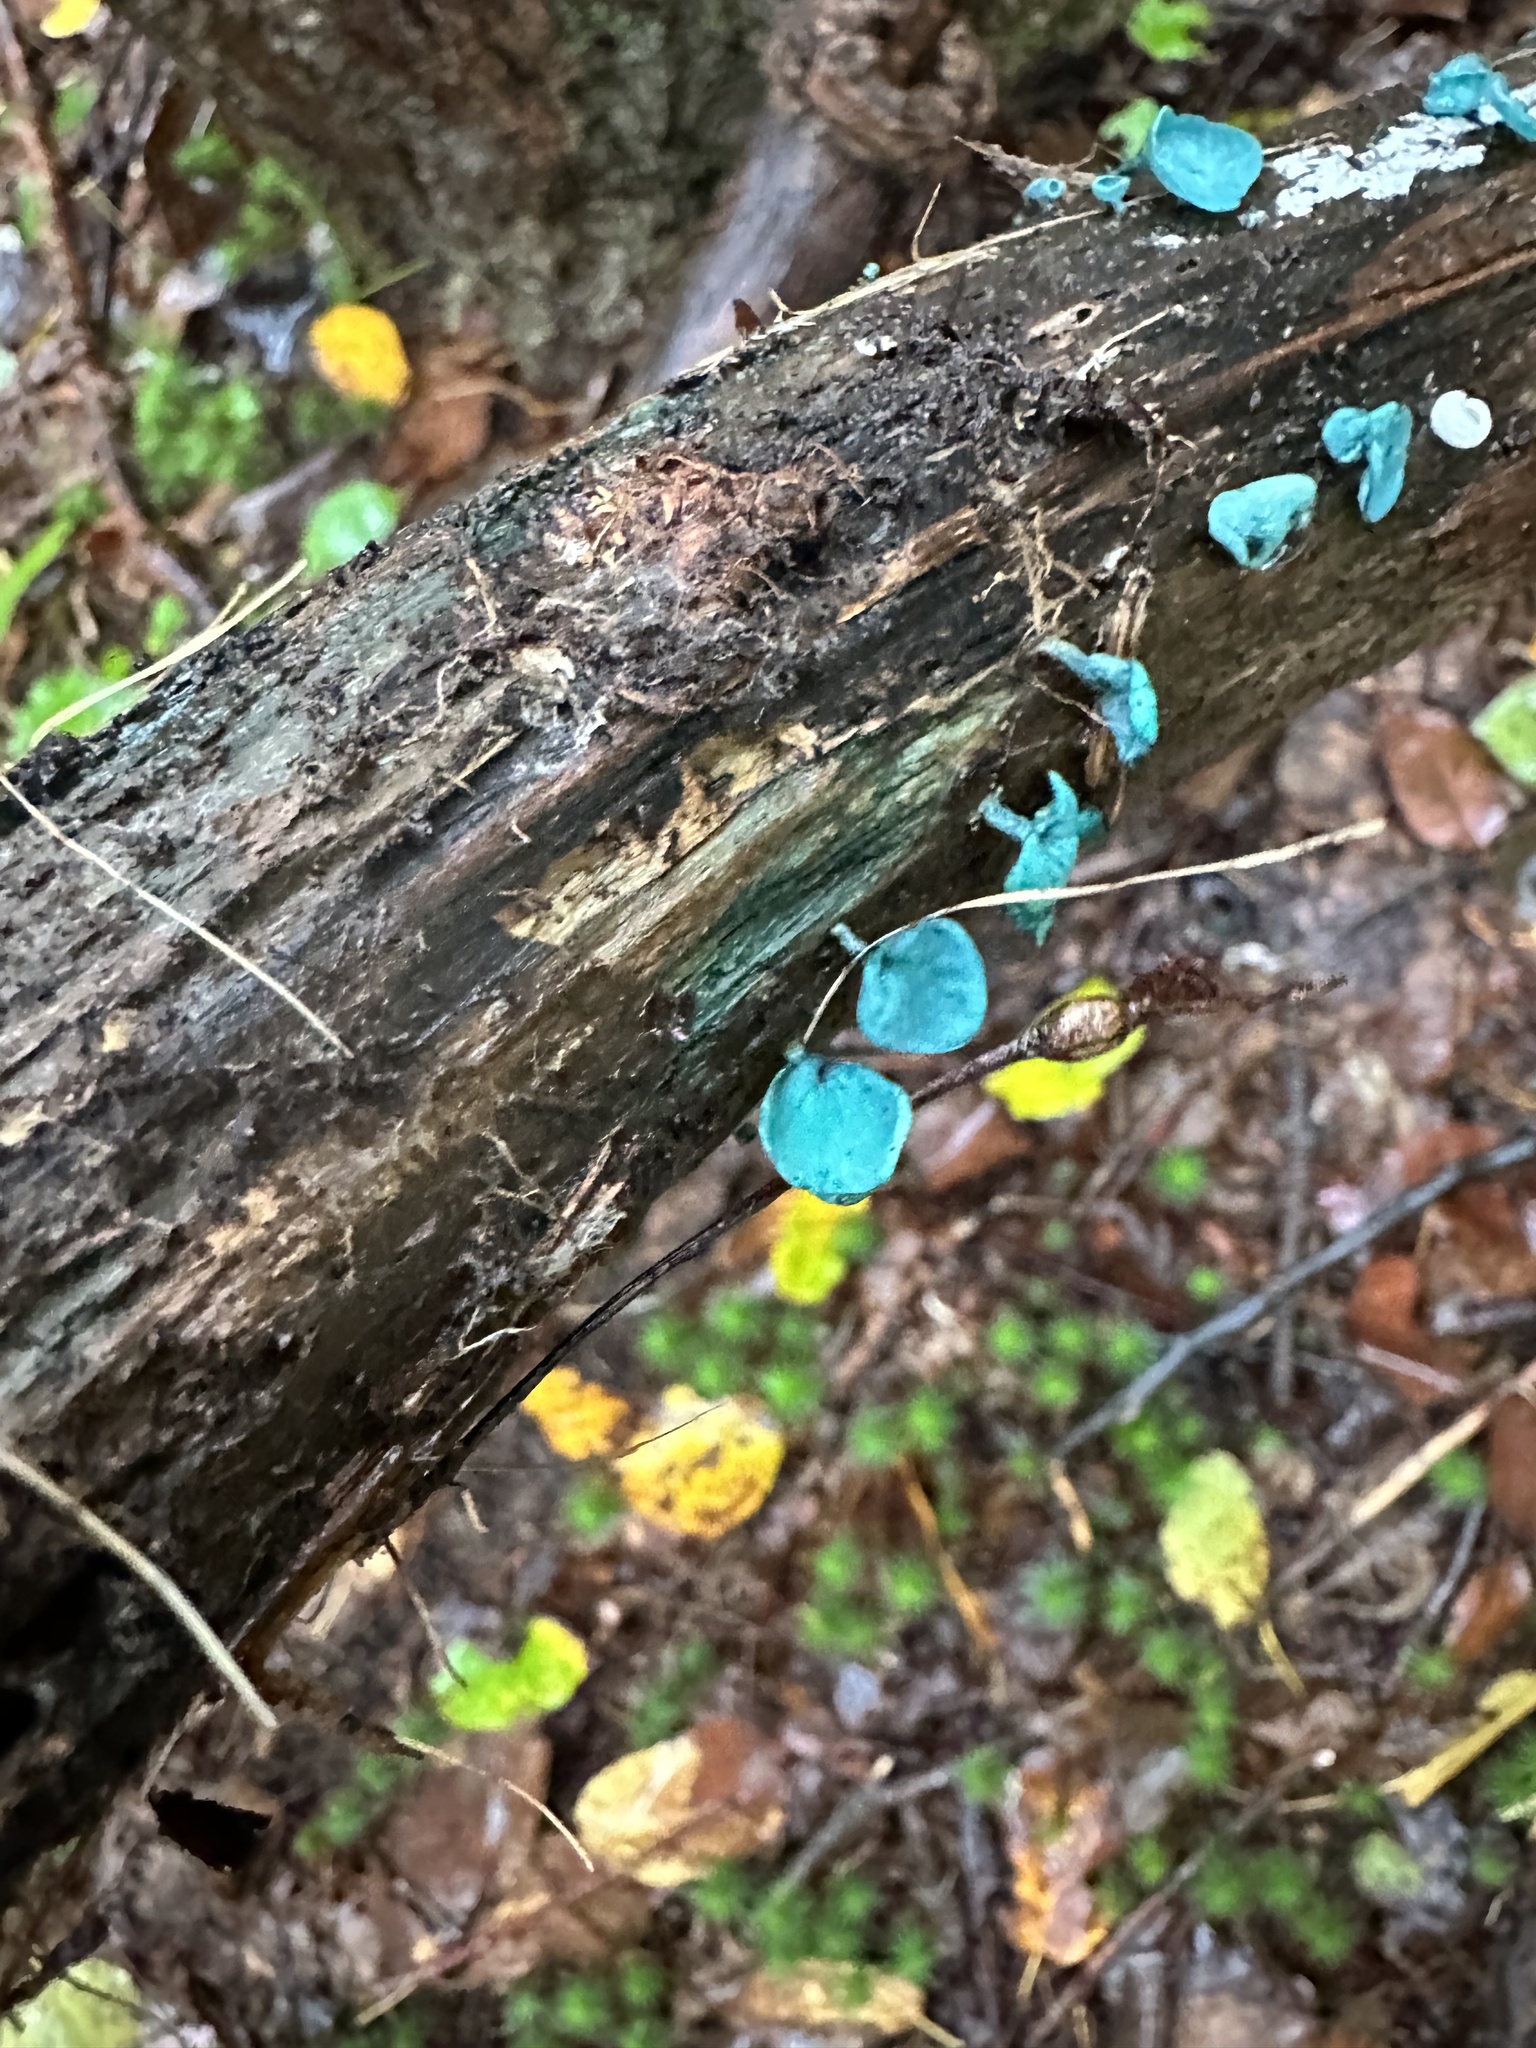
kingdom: Fungi
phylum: Ascomycota
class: Leotiomycetes
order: Helotiales
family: Chlorociboriaceae
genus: Chlorociboria
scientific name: Chlorociboria aeruginascens
